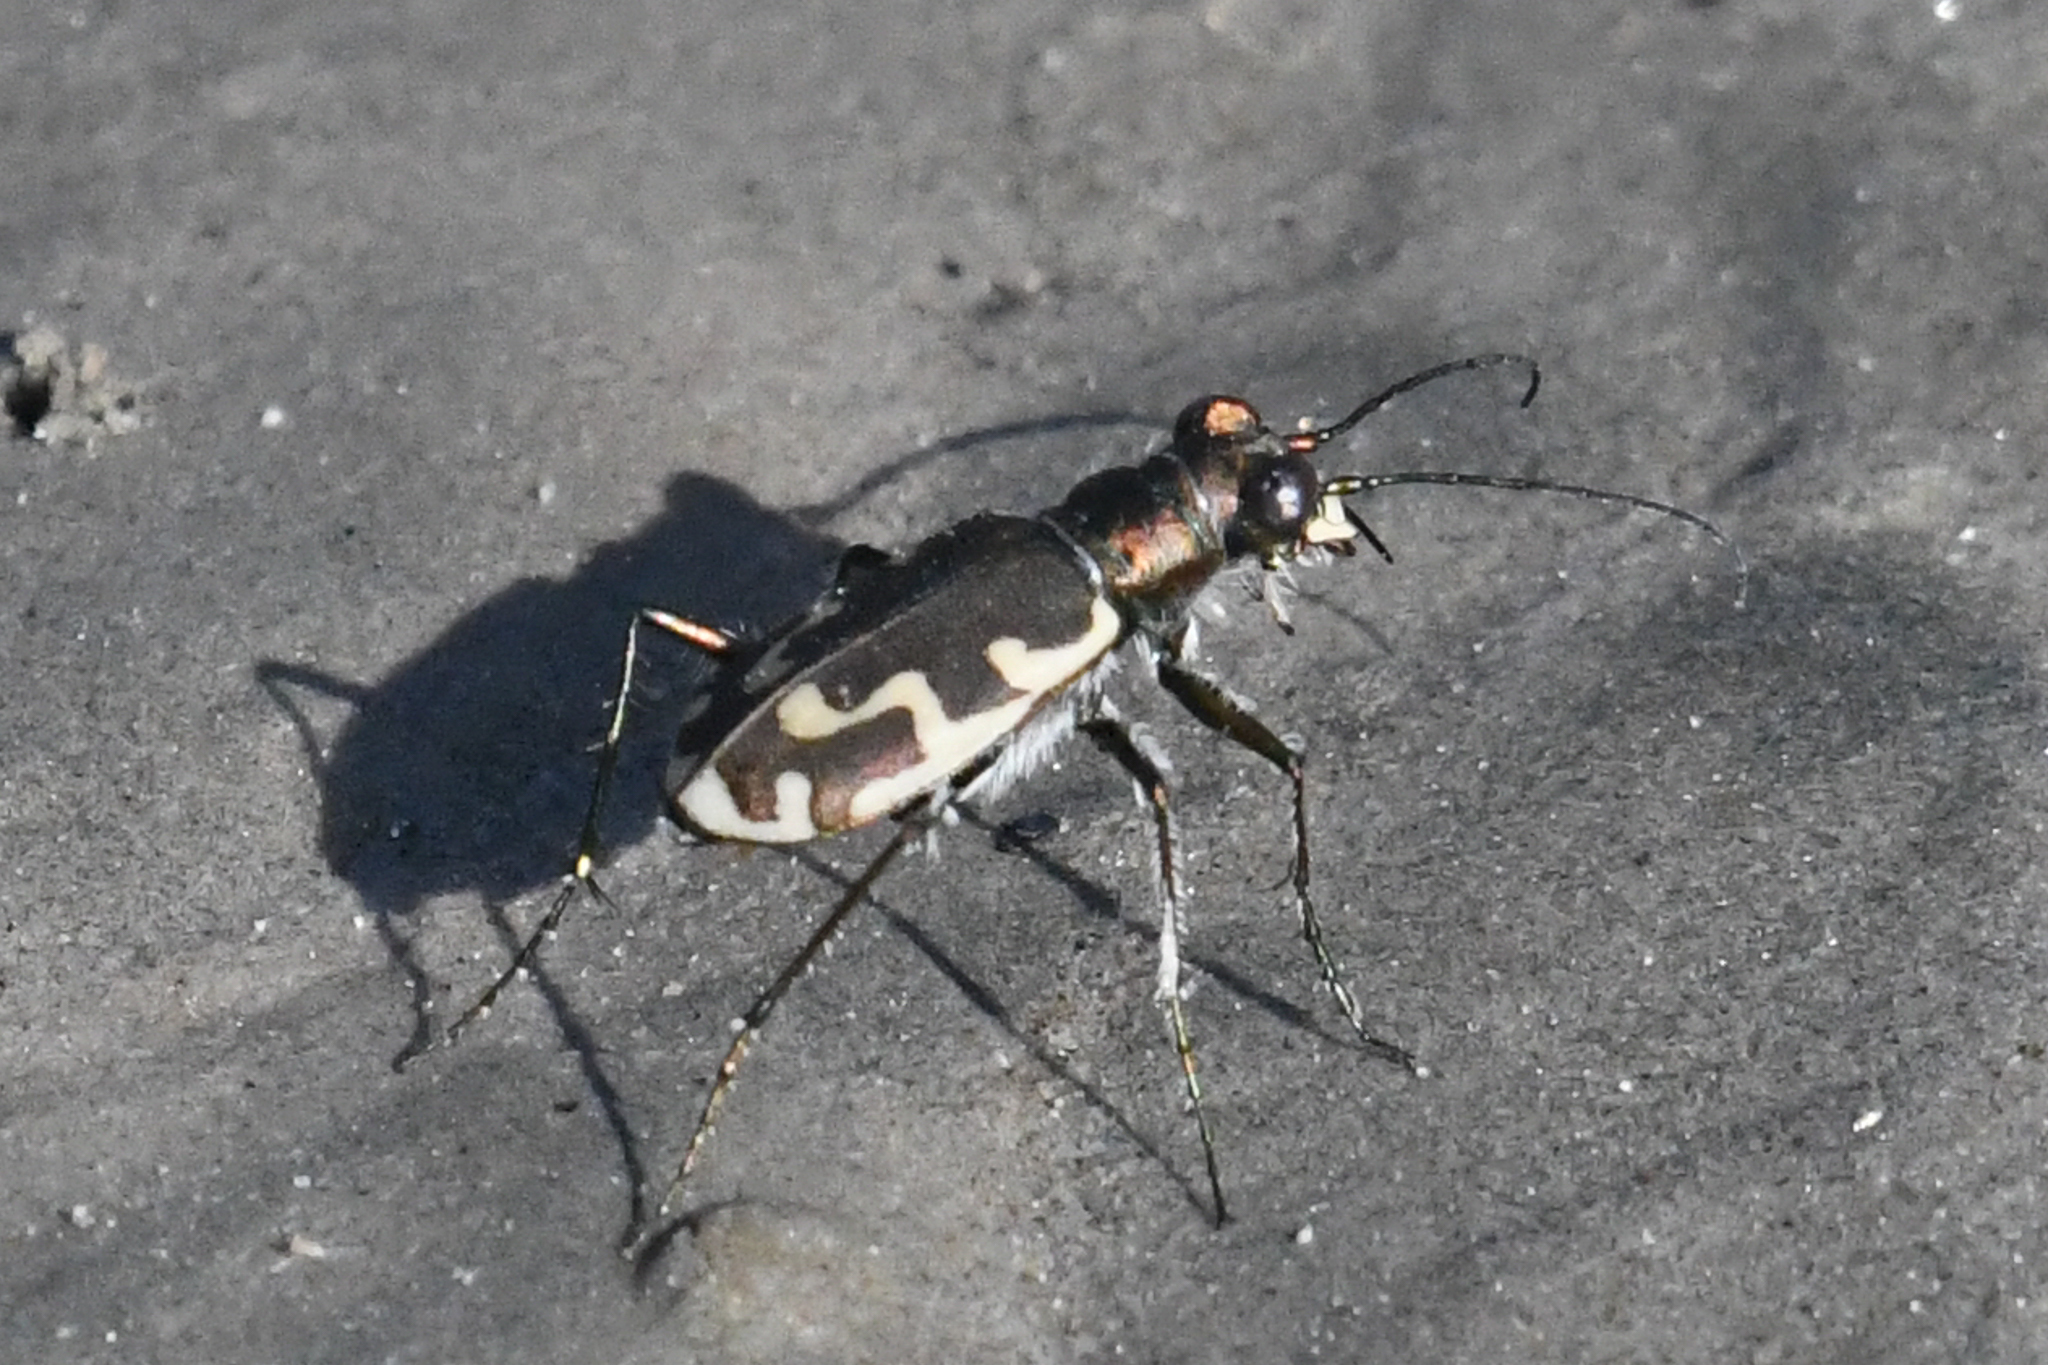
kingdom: Animalia
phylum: Arthropoda
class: Insecta
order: Coleoptera
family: Carabidae
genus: Cicindela
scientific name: Cicindela repanda
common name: Bronzed tiger beetle
